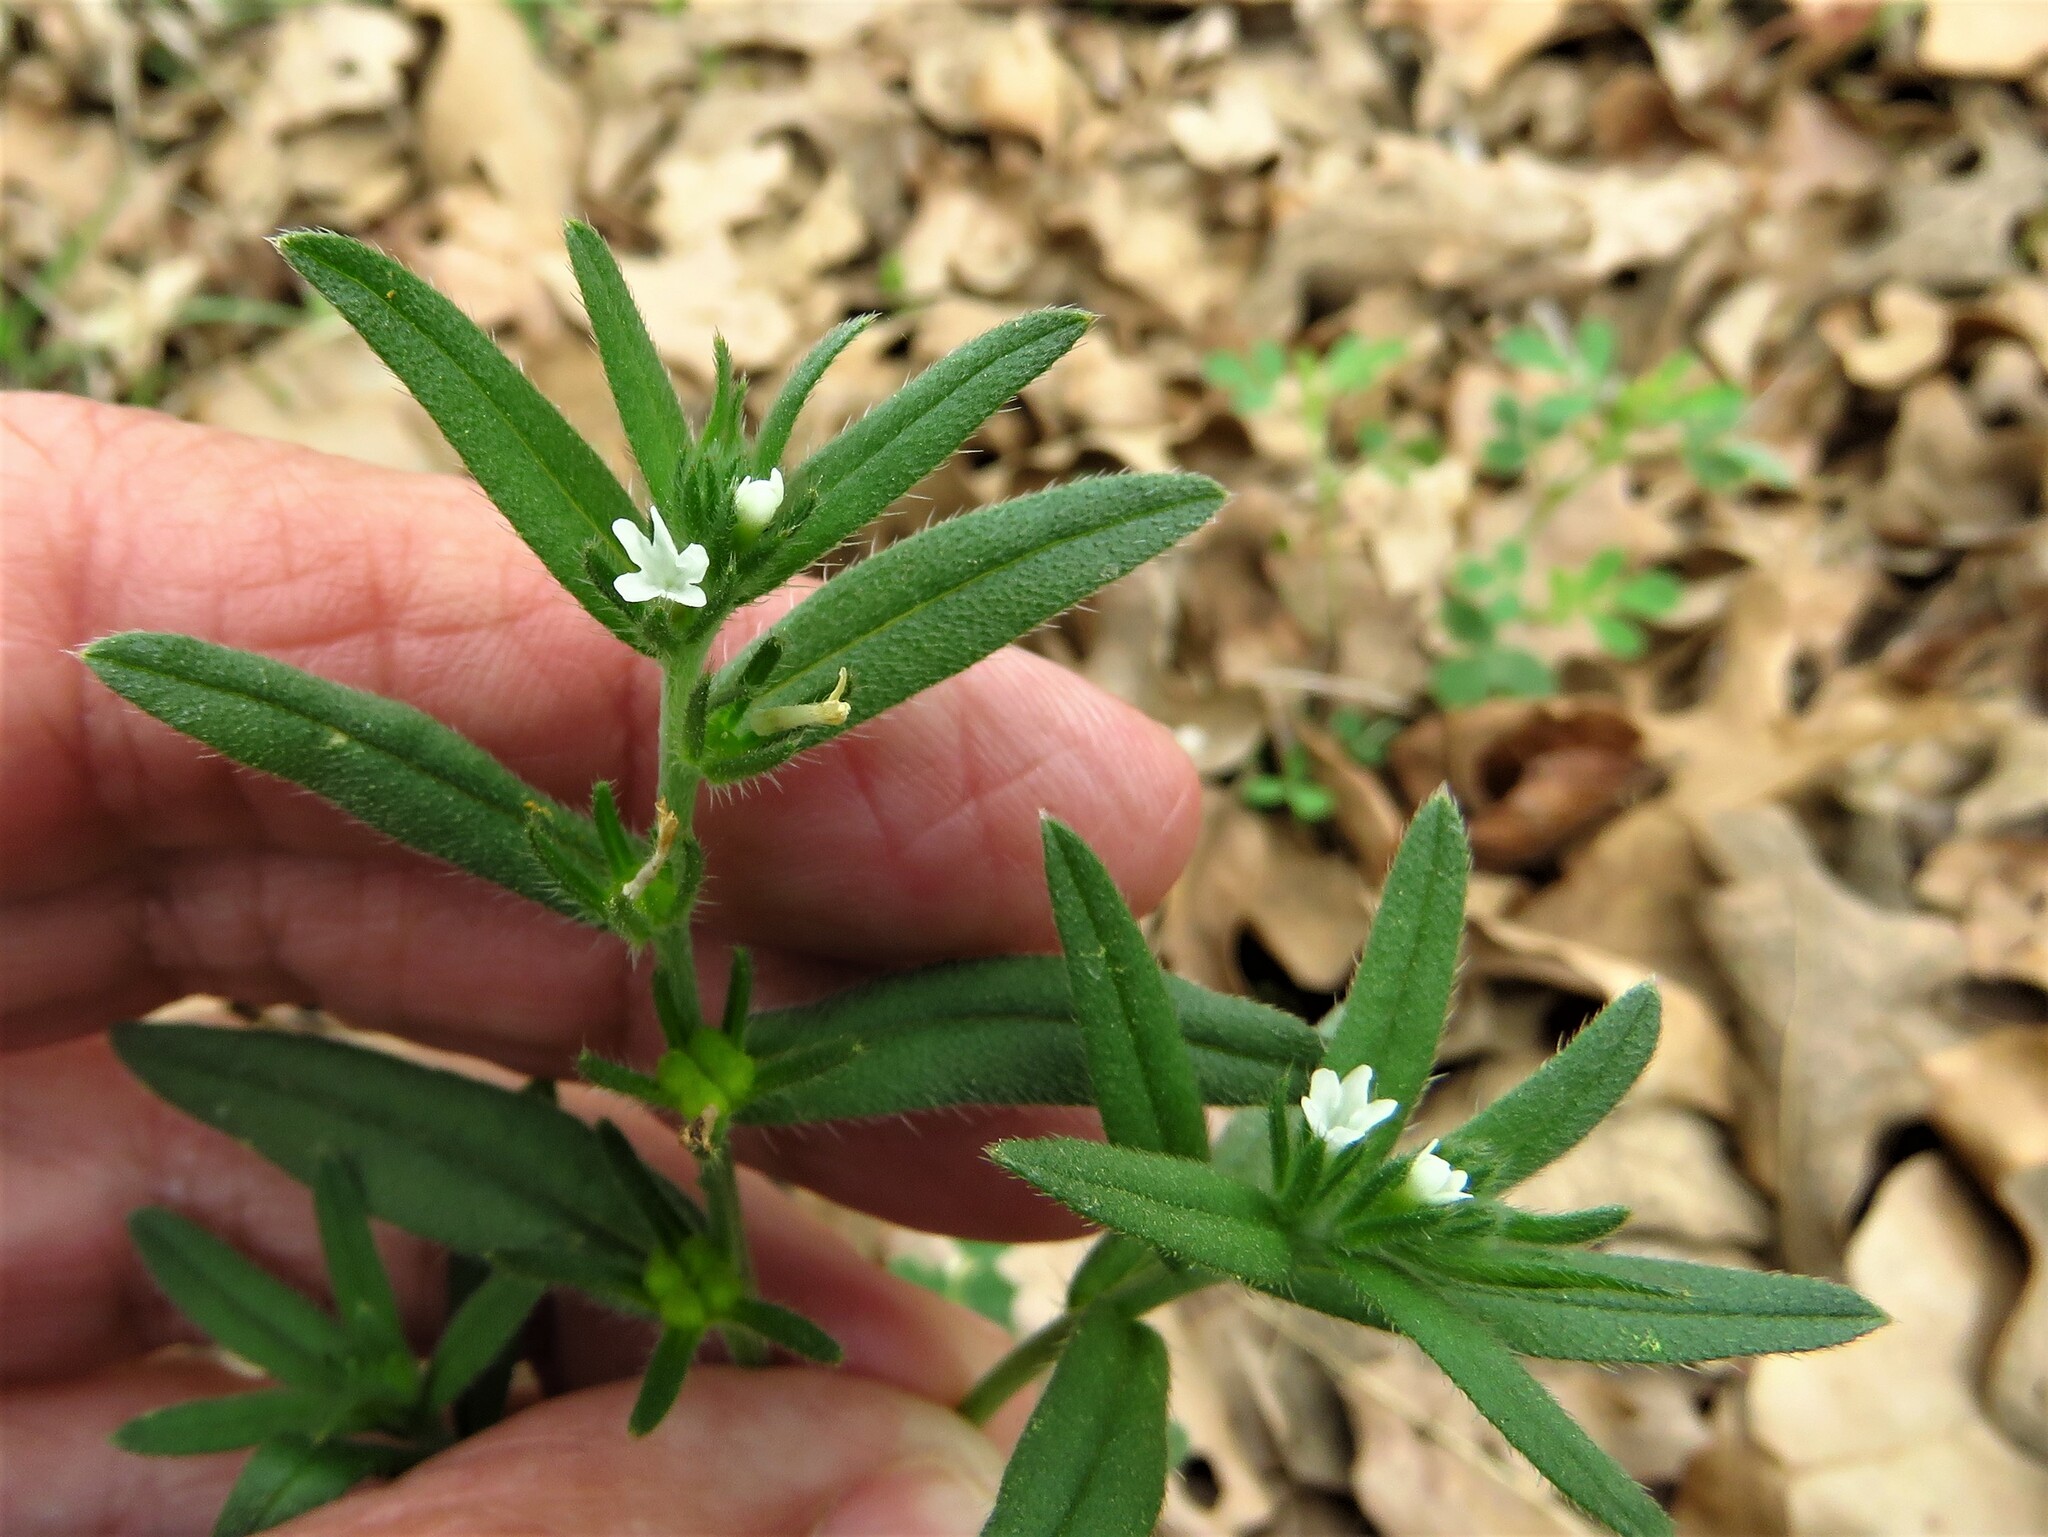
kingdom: Plantae
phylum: Tracheophyta
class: Magnoliopsida
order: Boraginales
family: Boraginaceae
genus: Buglossoides
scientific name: Buglossoides arvensis
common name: Corn gromwell
